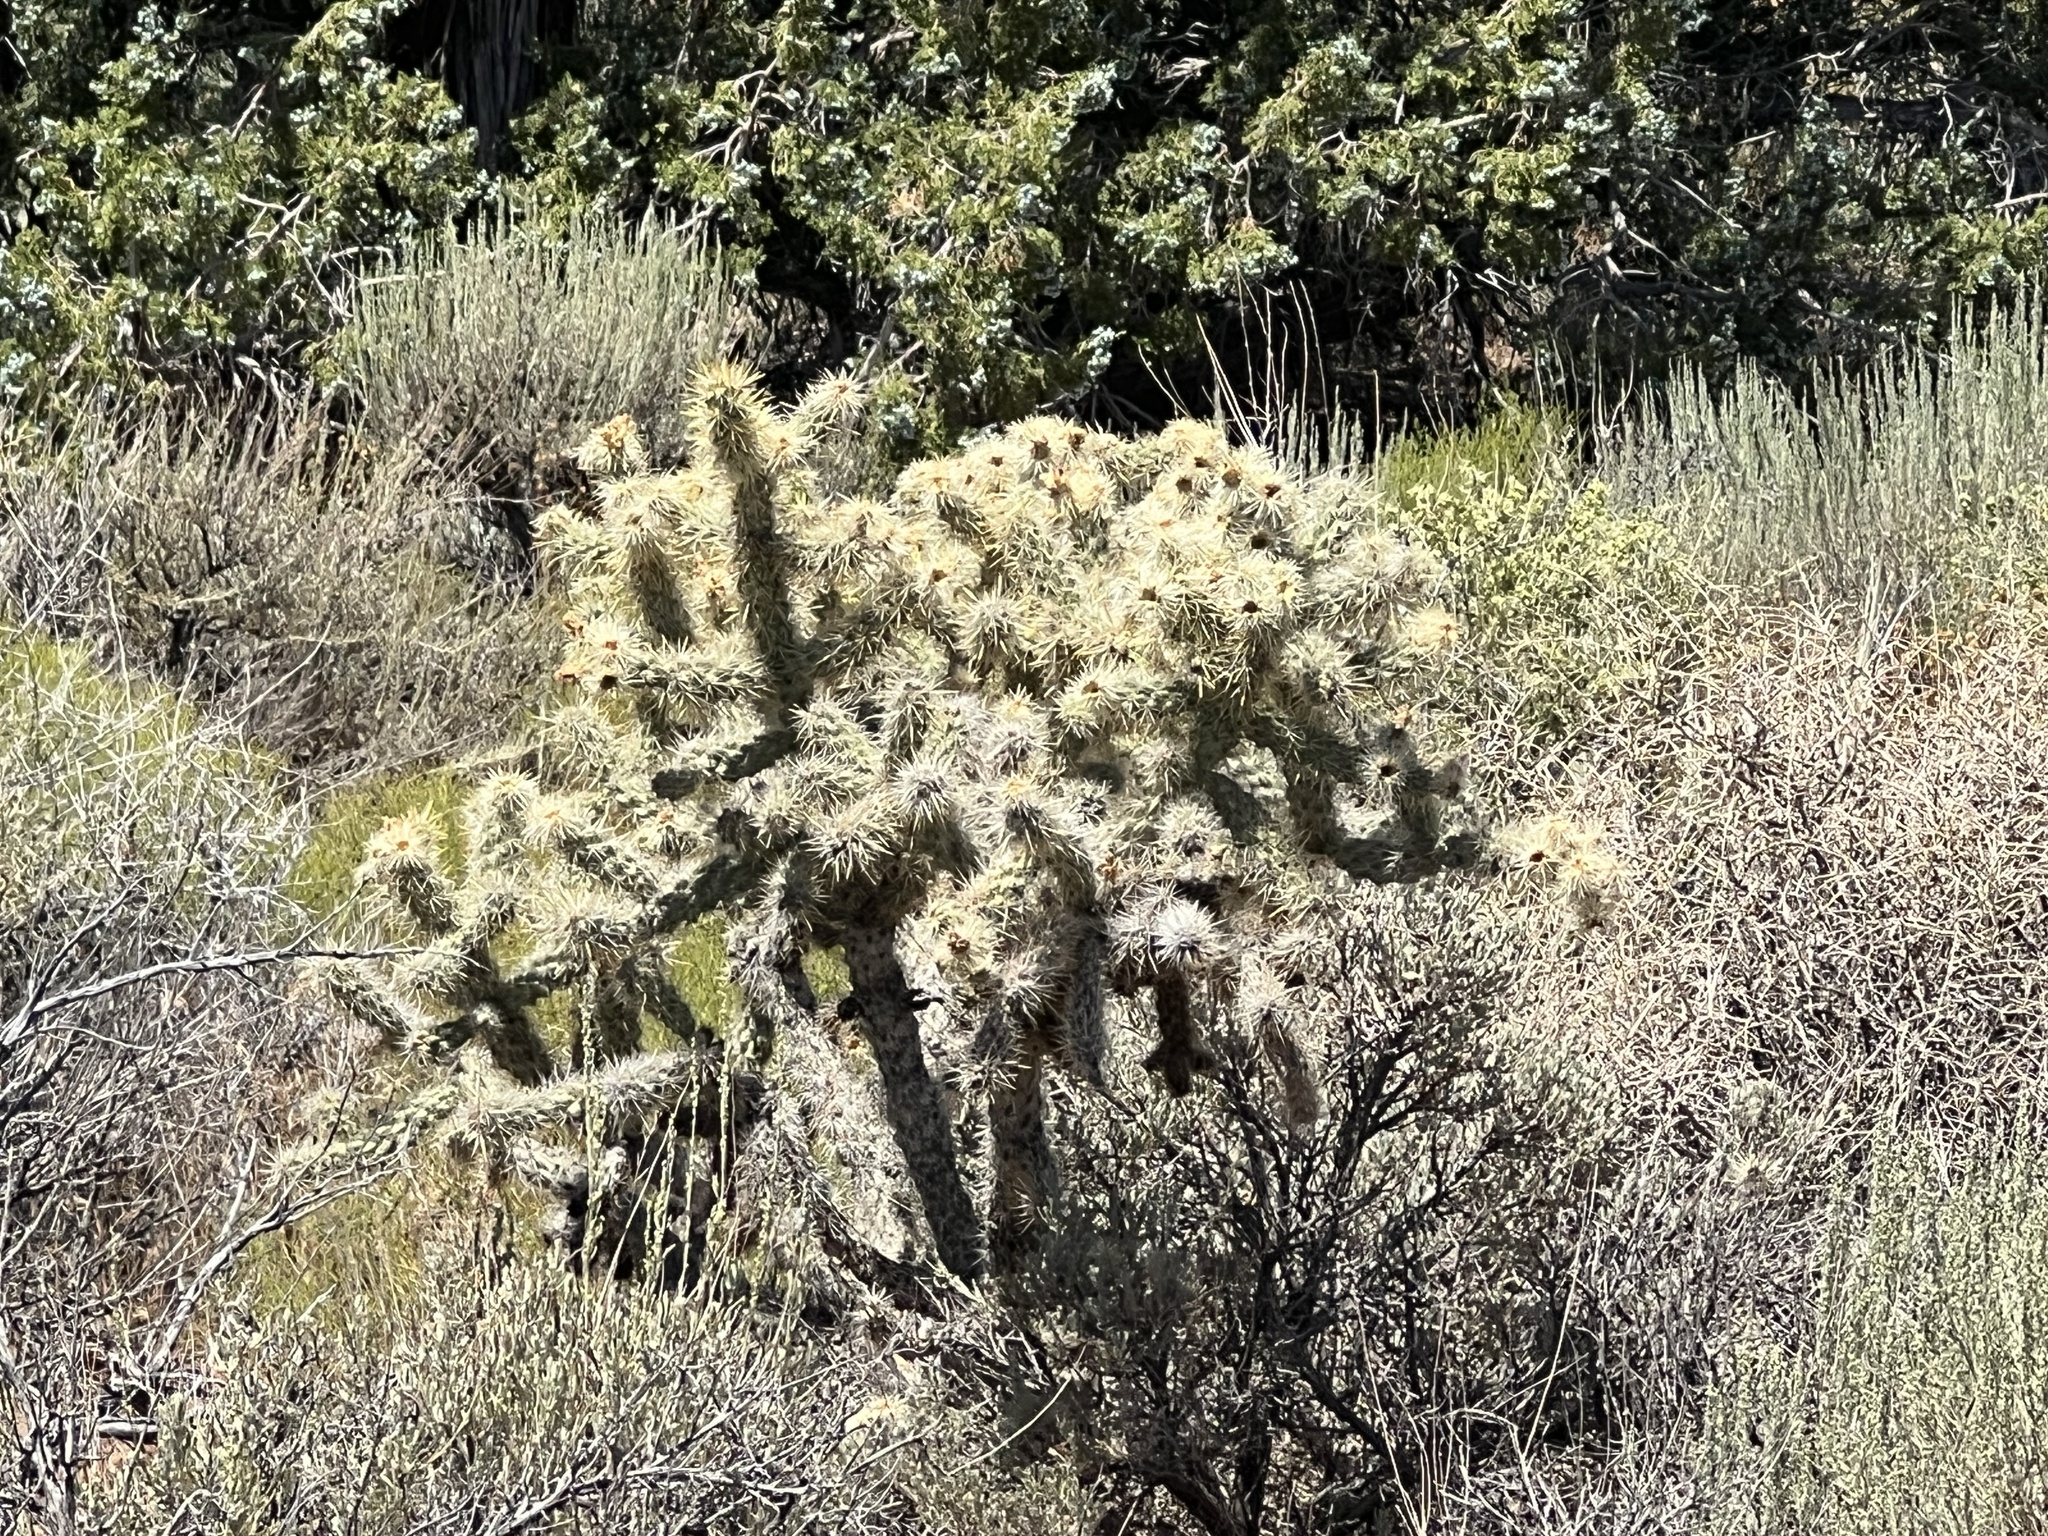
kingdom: Plantae
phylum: Tracheophyta
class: Magnoliopsida
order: Caryophyllales
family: Cactaceae
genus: Cylindropuntia
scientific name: Cylindropuntia echinocarpa
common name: Ground cholla
